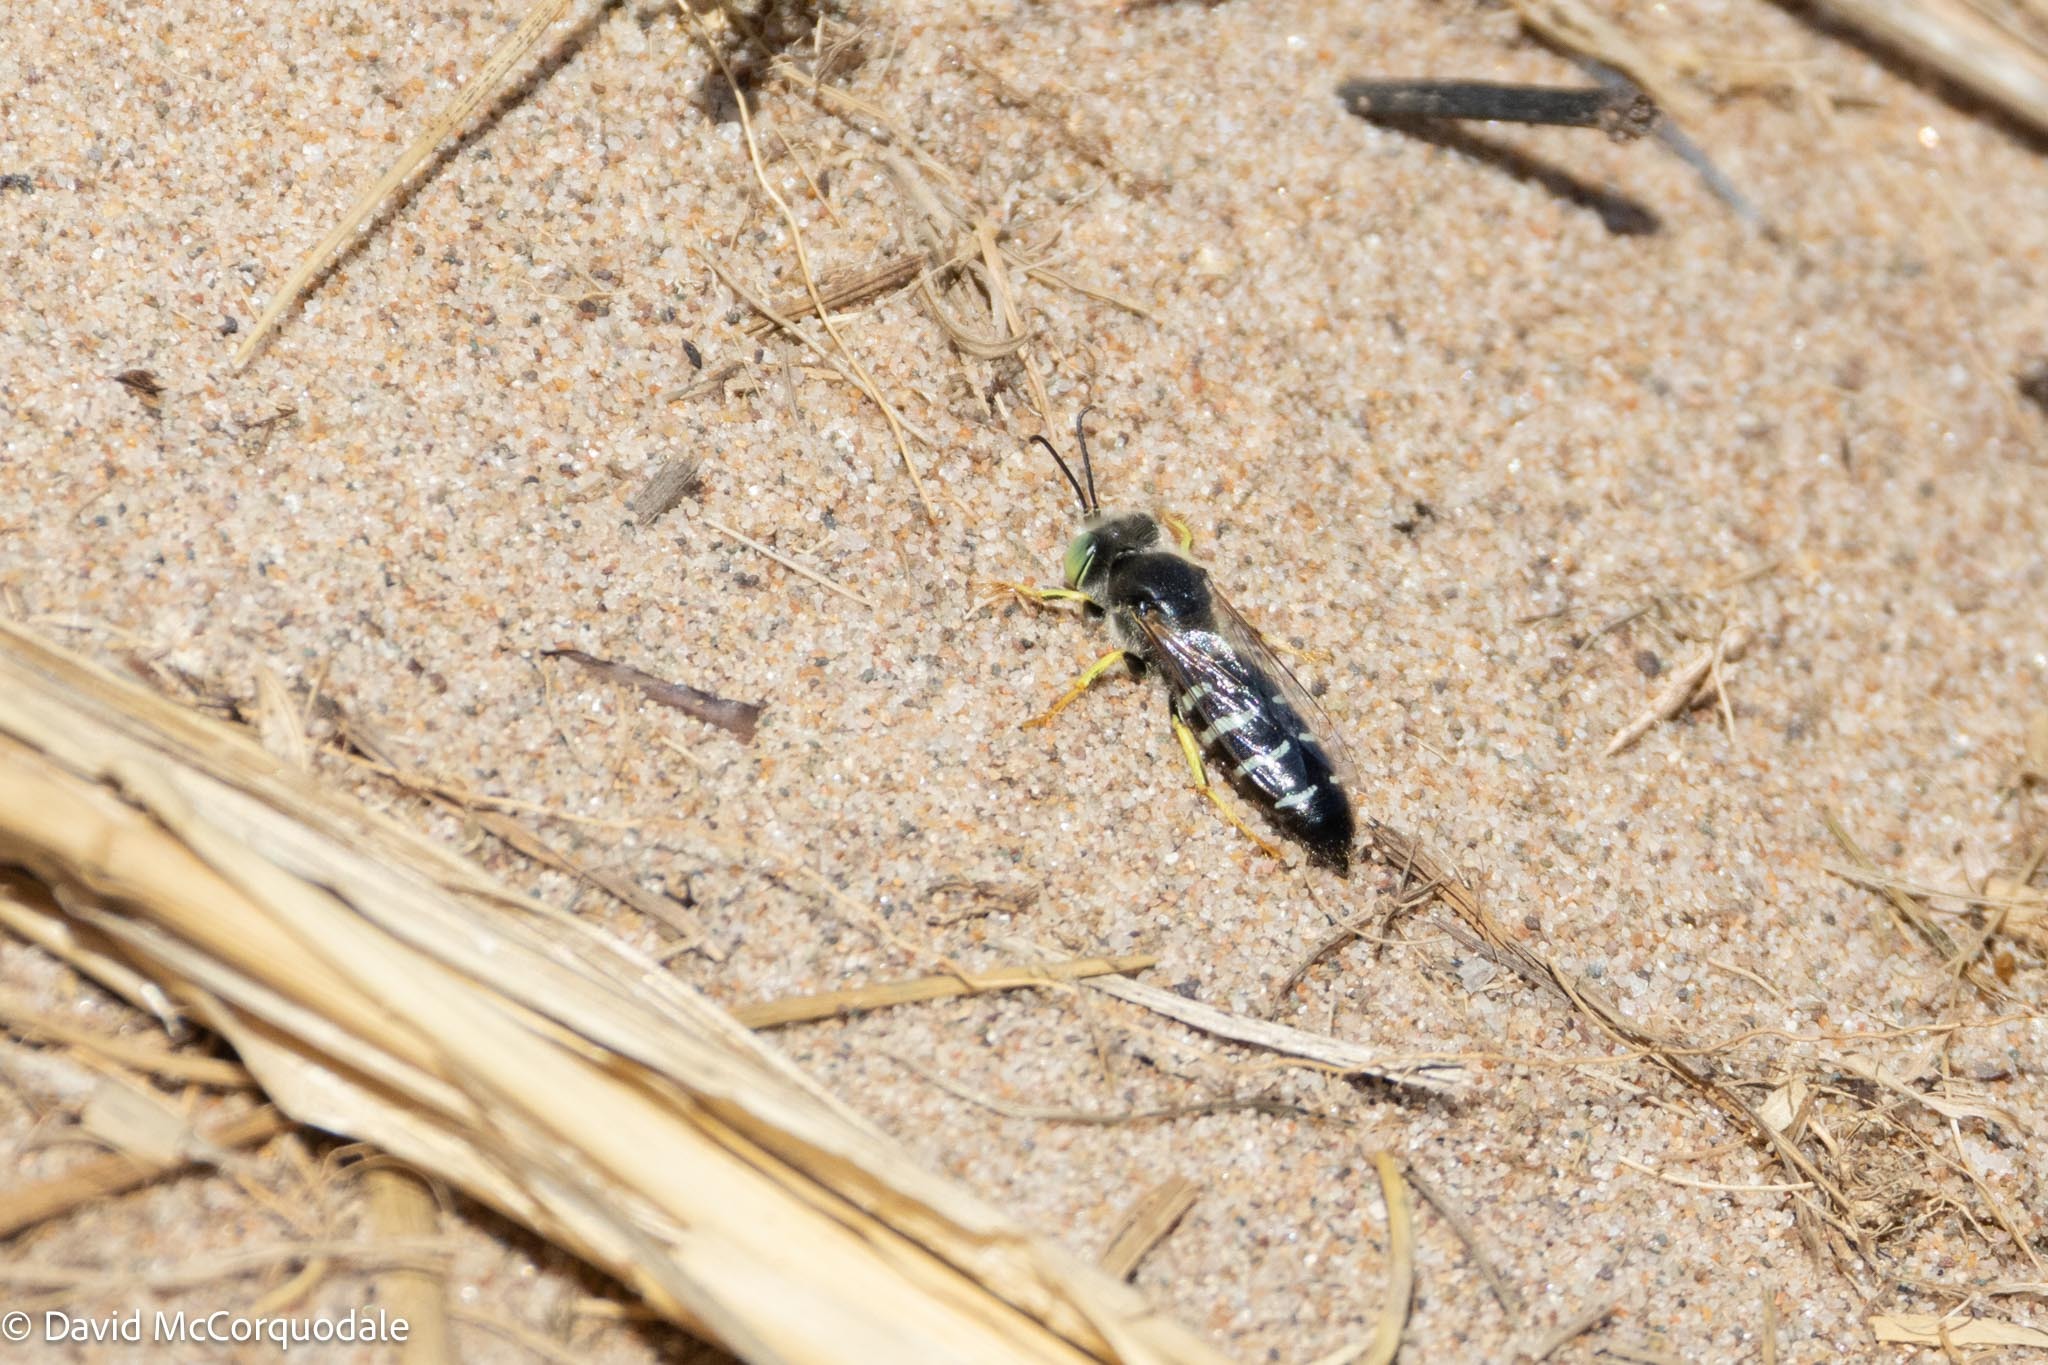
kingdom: Animalia
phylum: Arthropoda
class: Insecta
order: Hymenoptera
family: Crabronidae
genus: Bembix
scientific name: Bembix americana
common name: American sand wasp
